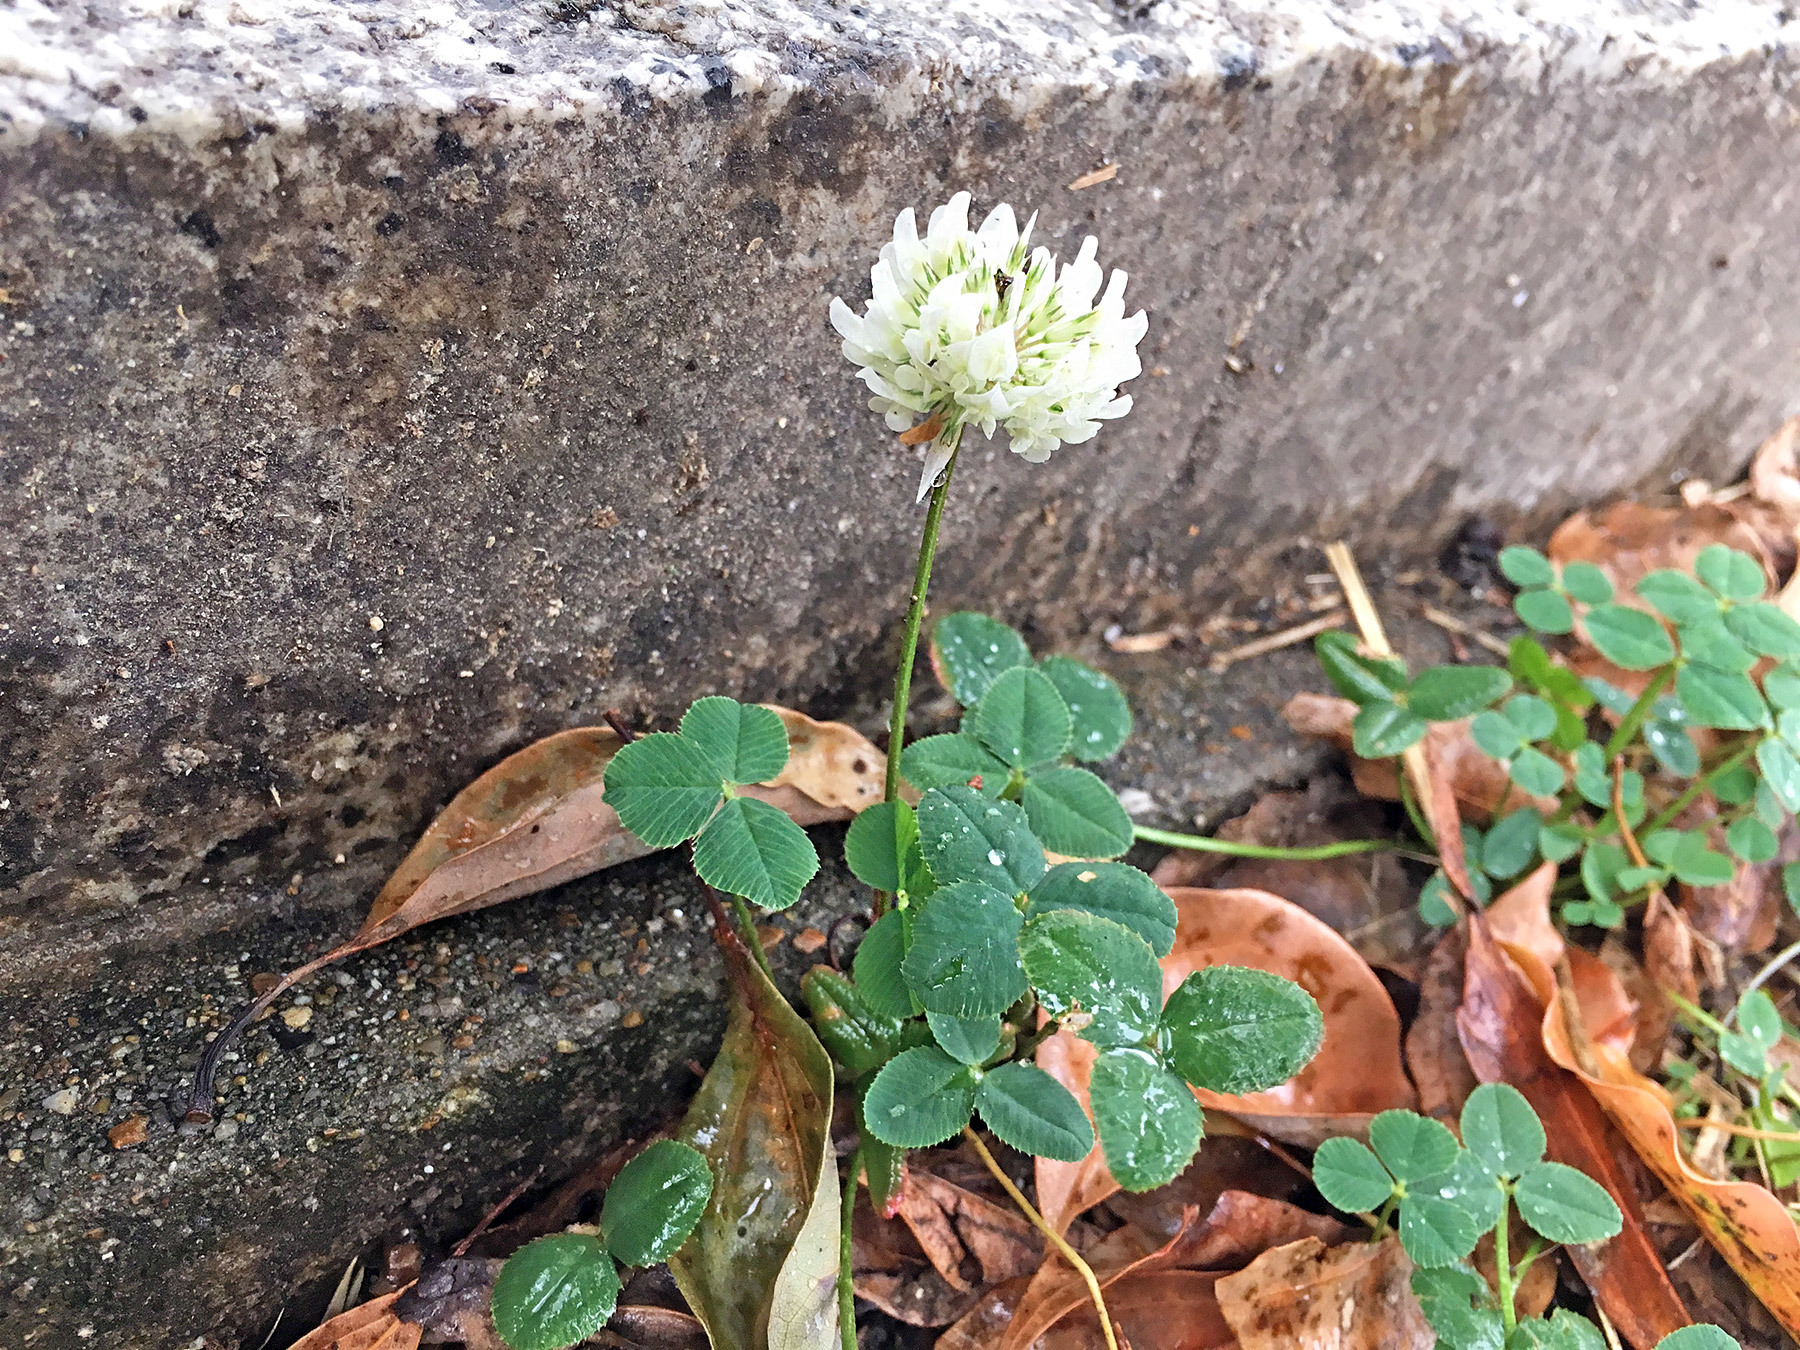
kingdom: Plantae
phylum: Tracheophyta
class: Magnoliopsida
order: Fabales
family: Fabaceae
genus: Trifolium
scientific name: Trifolium repens
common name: White clover
